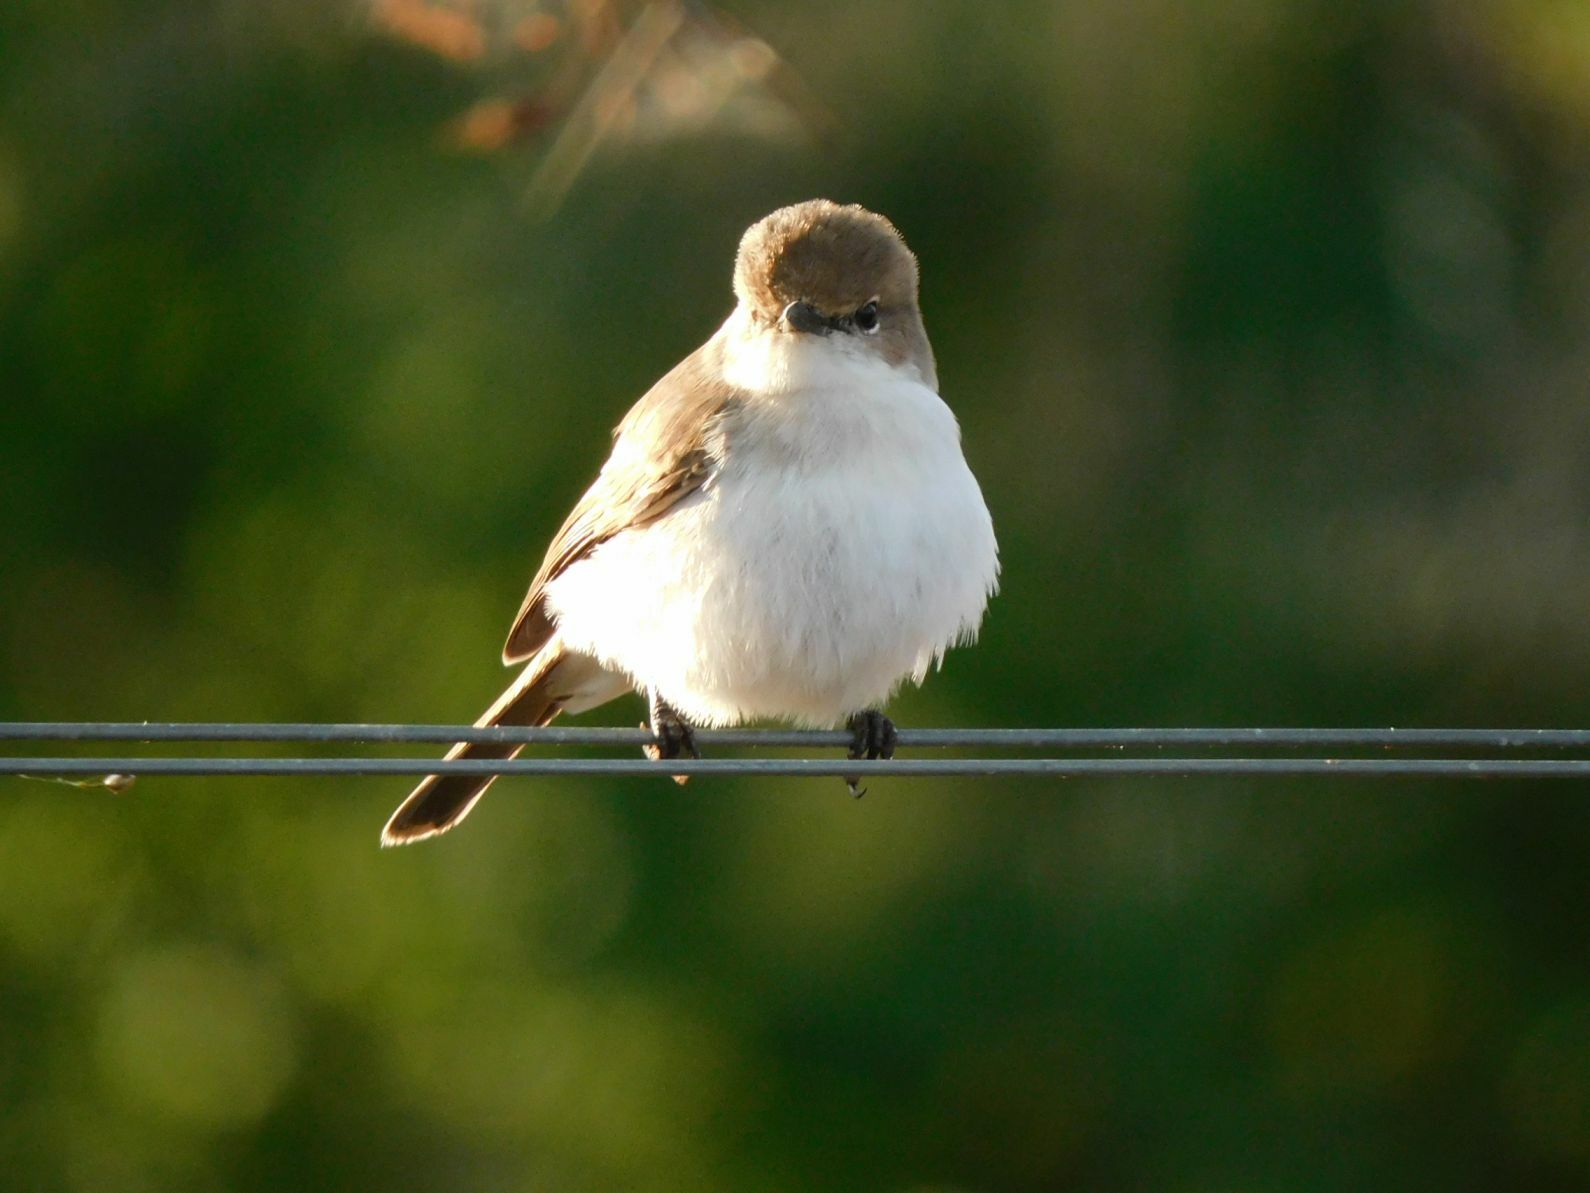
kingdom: Animalia
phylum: Chordata
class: Aves
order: Passeriformes
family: Muscicapidae
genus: Bradornis
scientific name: Bradornis mariquensis
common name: Marico flycatcher
